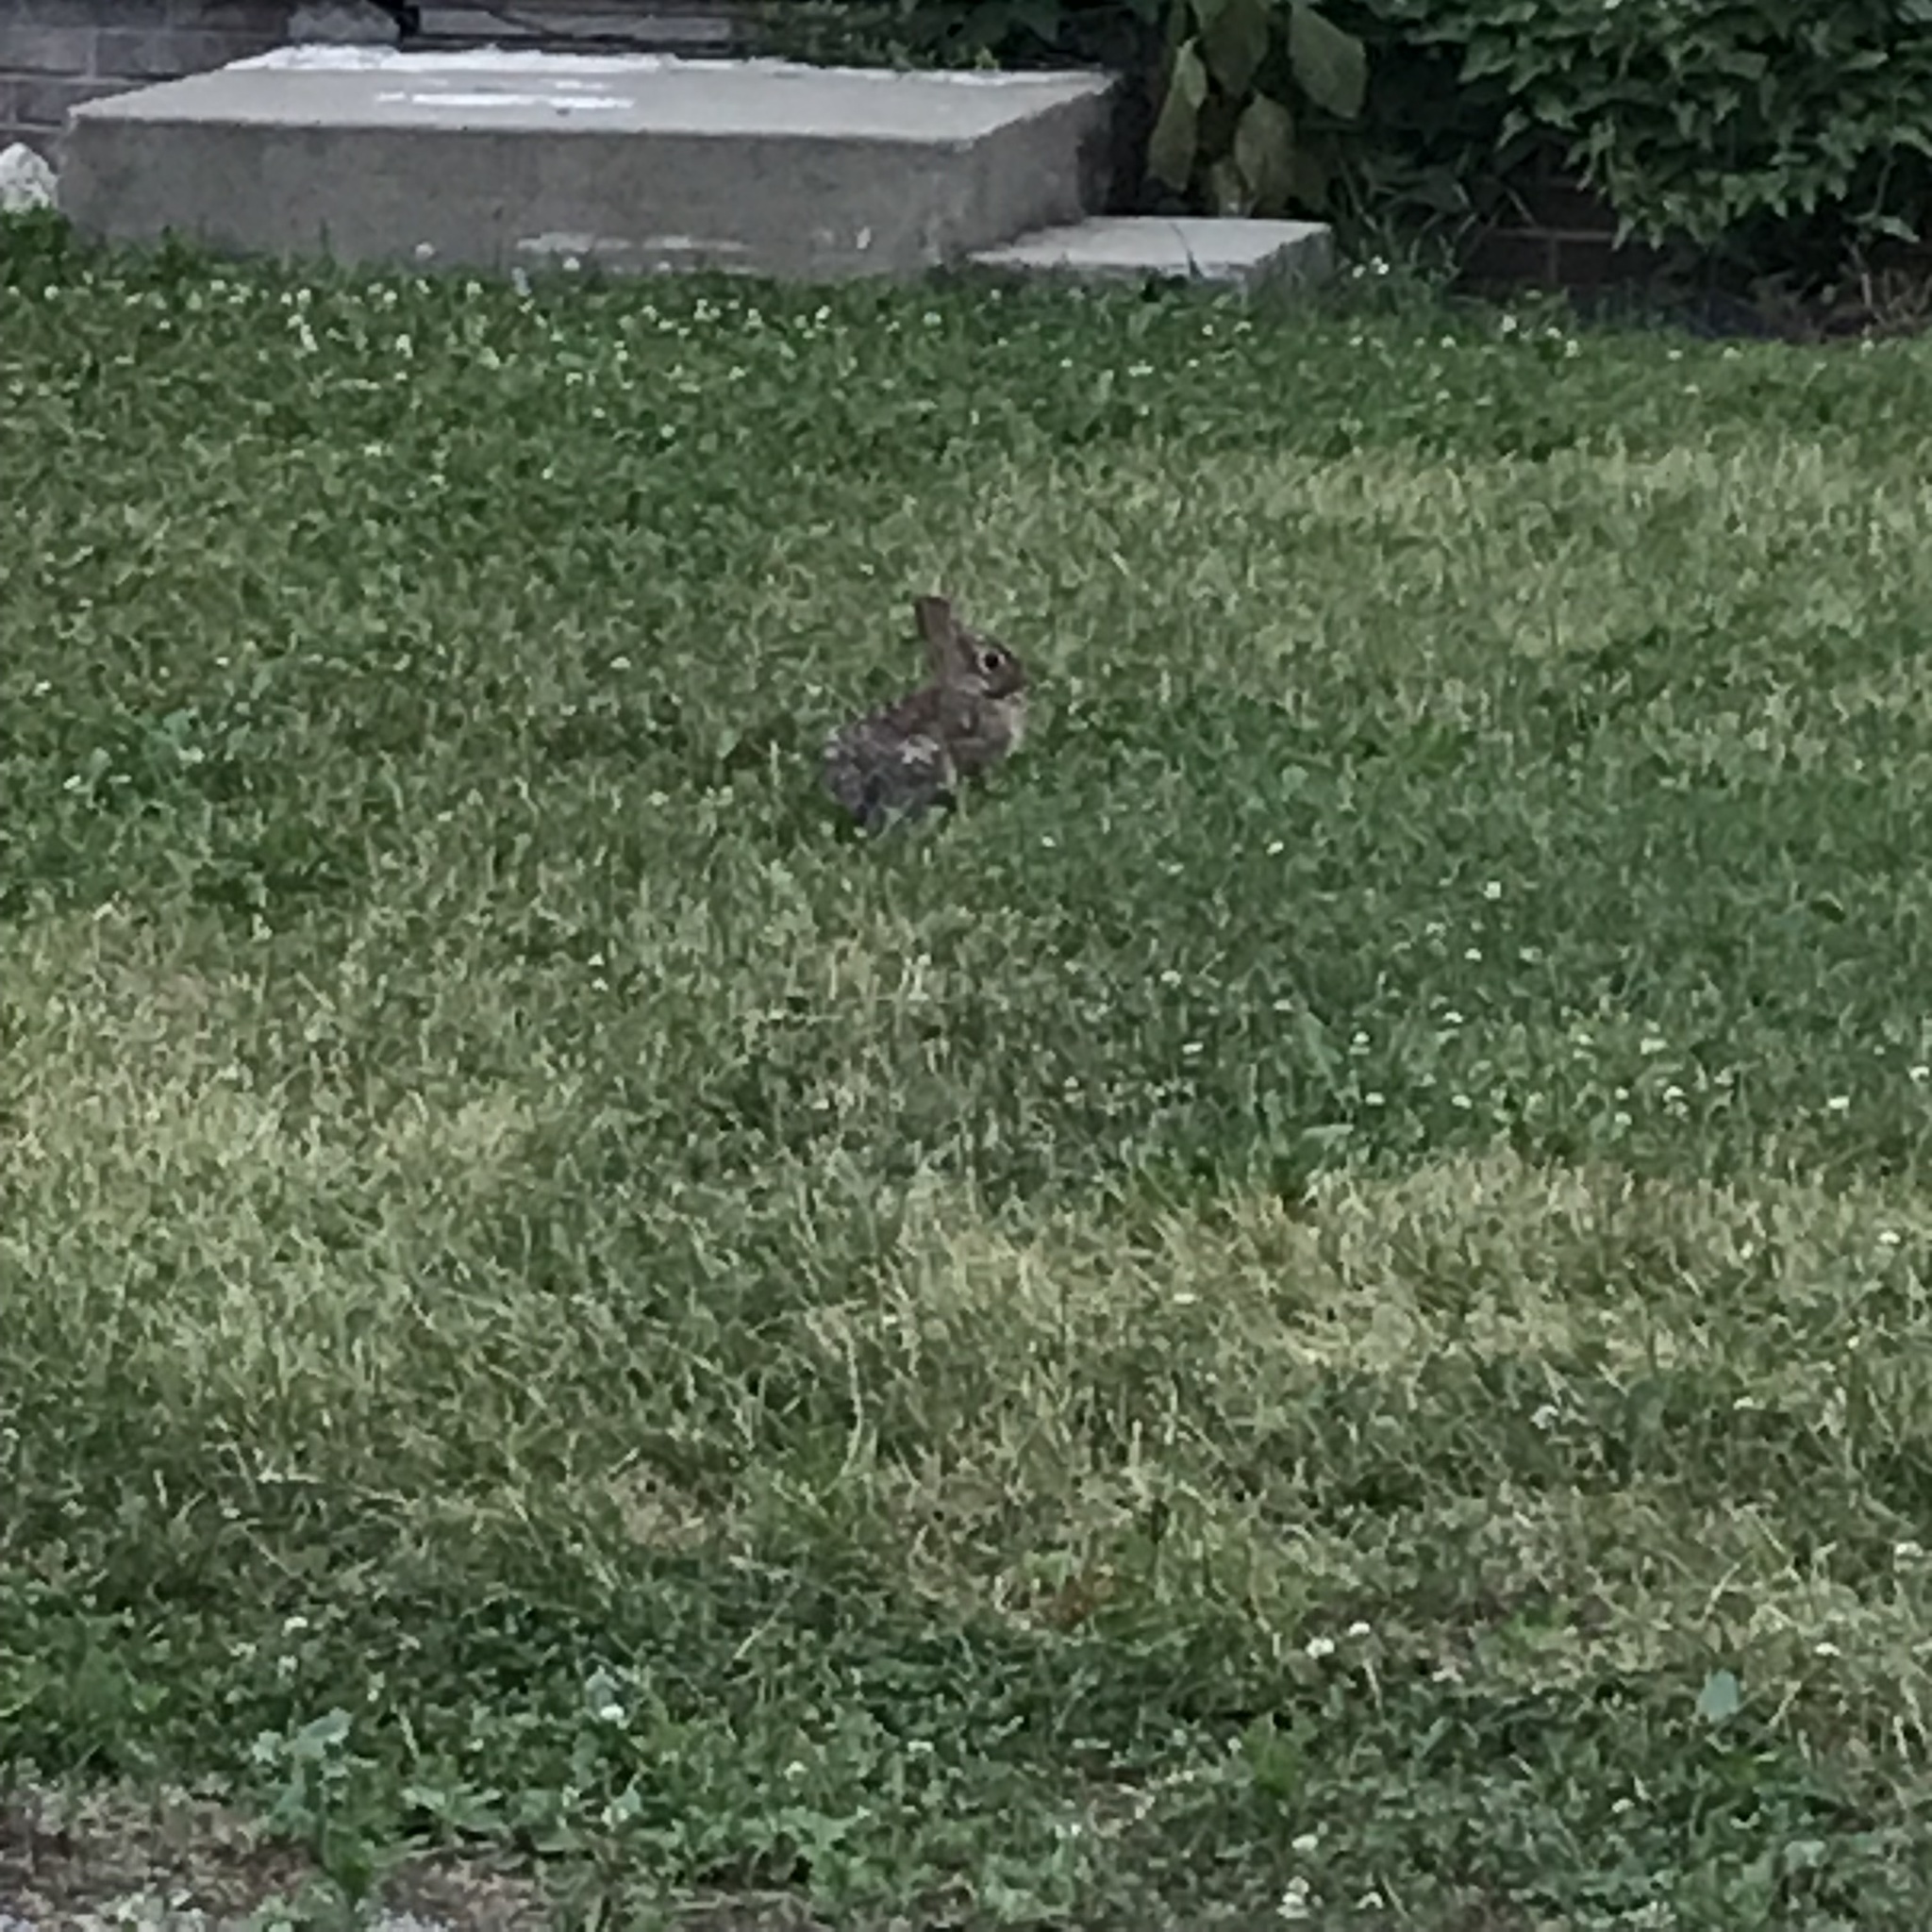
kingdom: Animalia
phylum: Chordata
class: Mammalia
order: Lagomorpha
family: Leporidae
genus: Sylvilagus
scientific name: Sylvilagus floridanus
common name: Eastern cottontail
